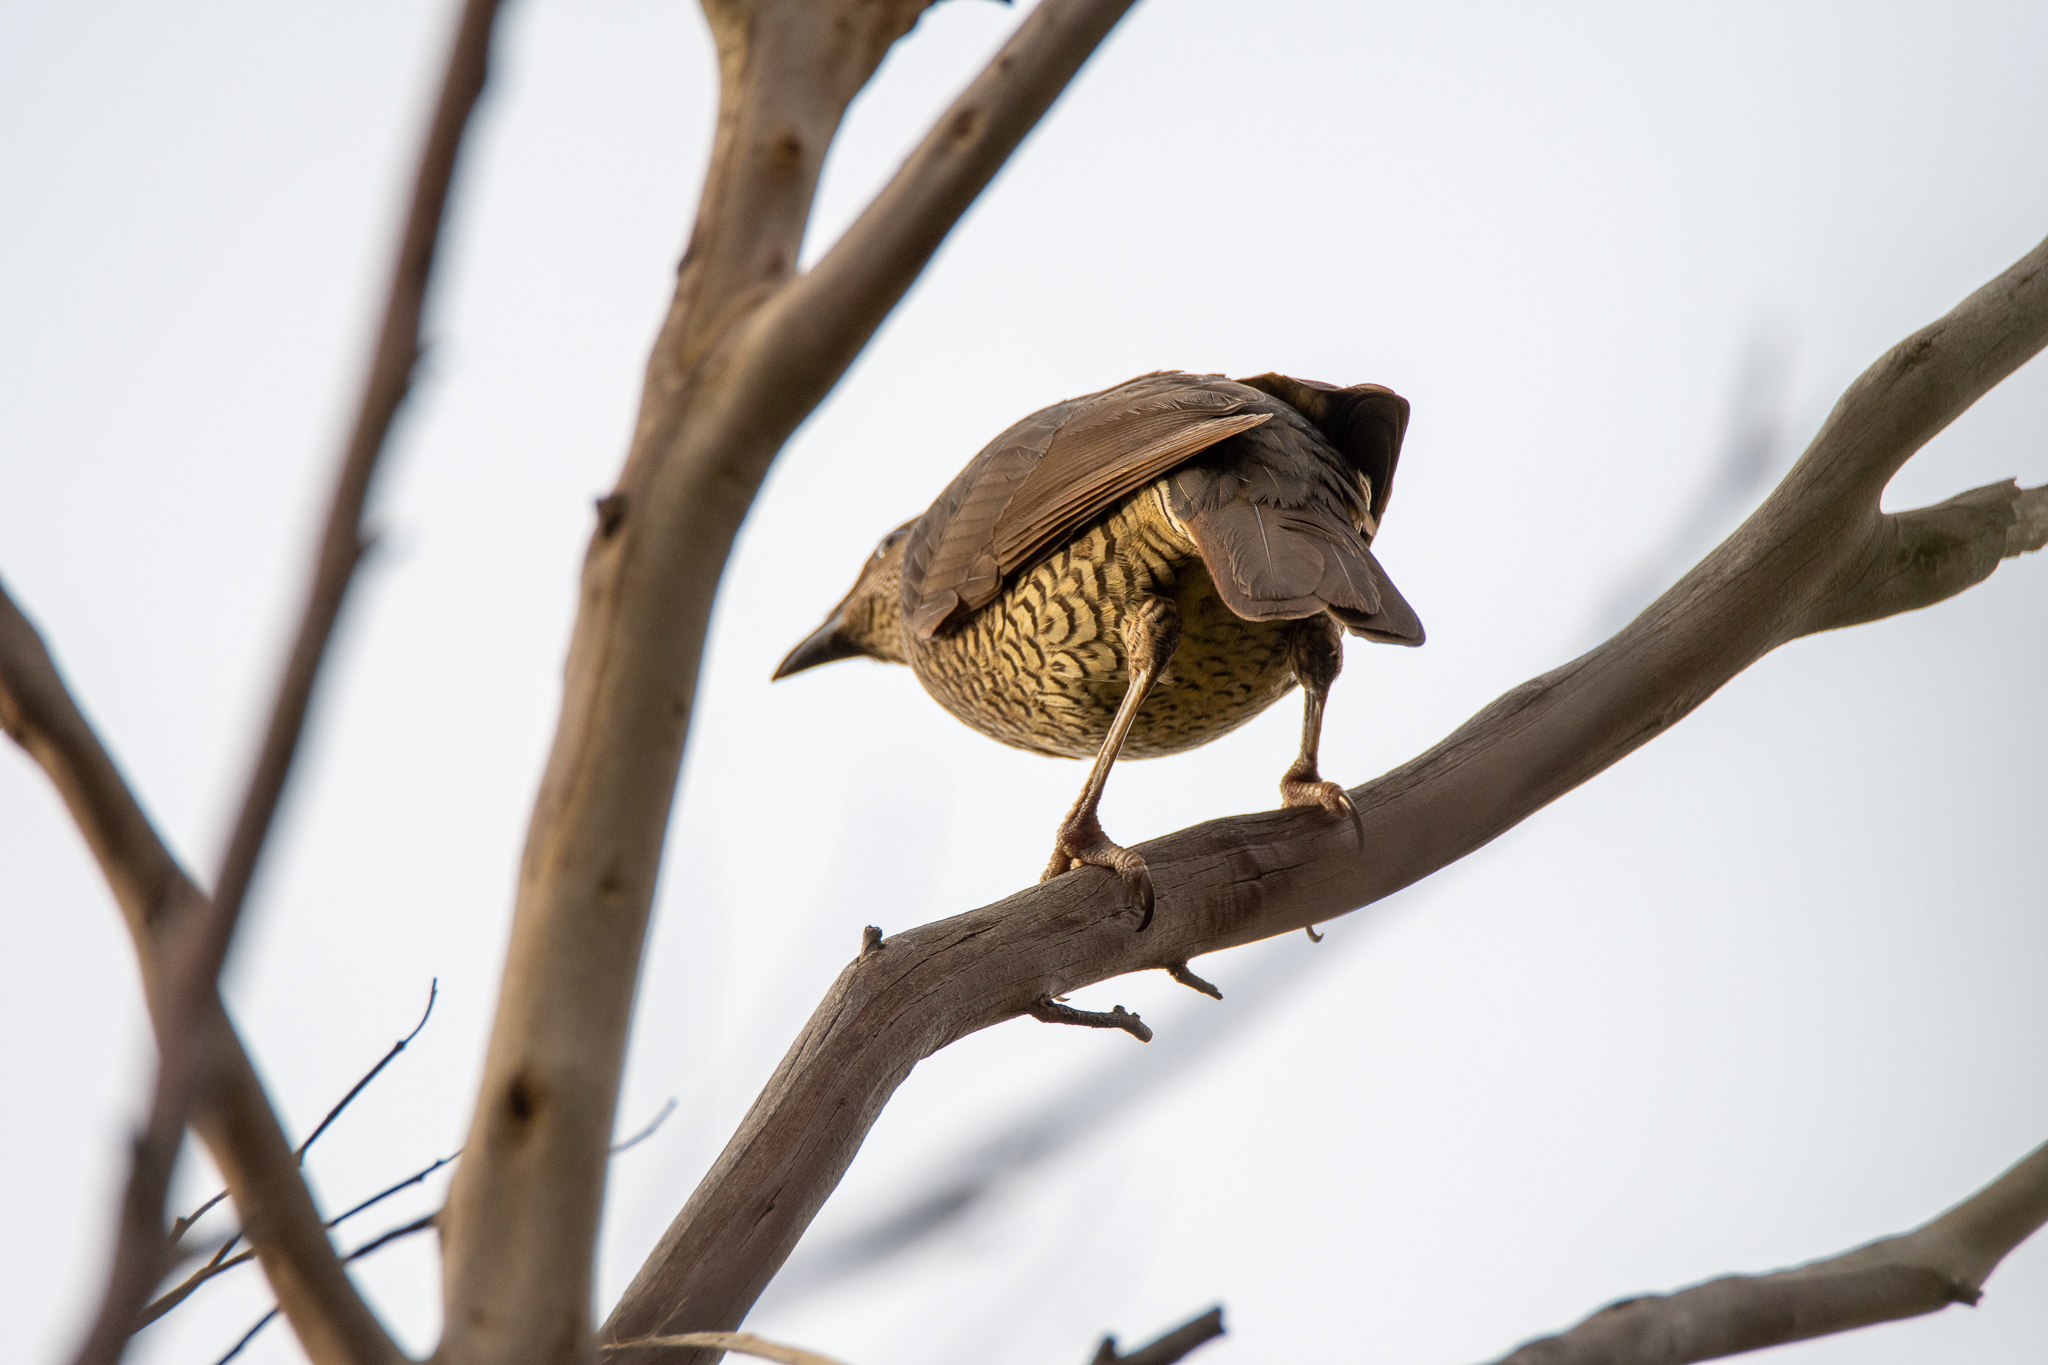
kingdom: Animalia
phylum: Chordata
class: Aves
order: Passeriformes
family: Ptilonorhynchidae
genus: Ptilonorhynchus
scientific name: Ptilonorhynchus violaceus
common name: Satin bowerbird
